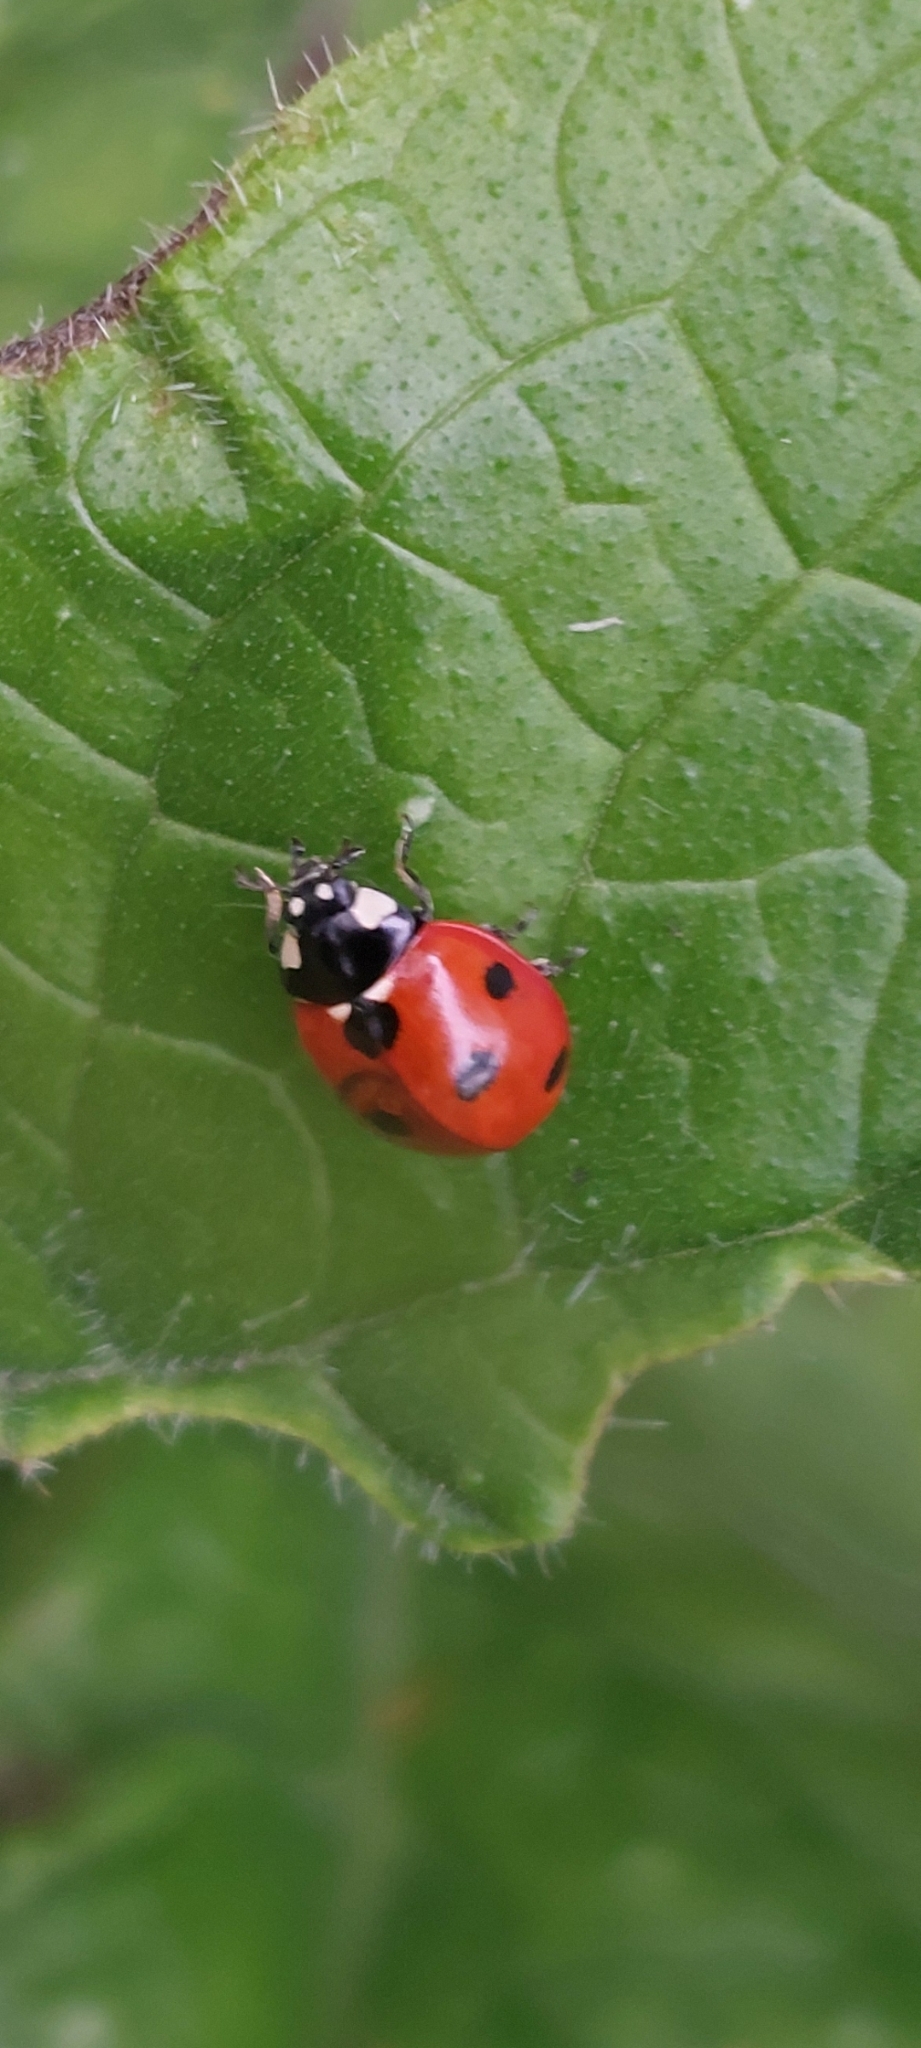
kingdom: Animalia
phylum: Arthropoda
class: Insecta
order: Coleoptera
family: Coccinellidae
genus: Coccinella
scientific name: Coccinella septempunctata
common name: Sevenspotted lady beetle
